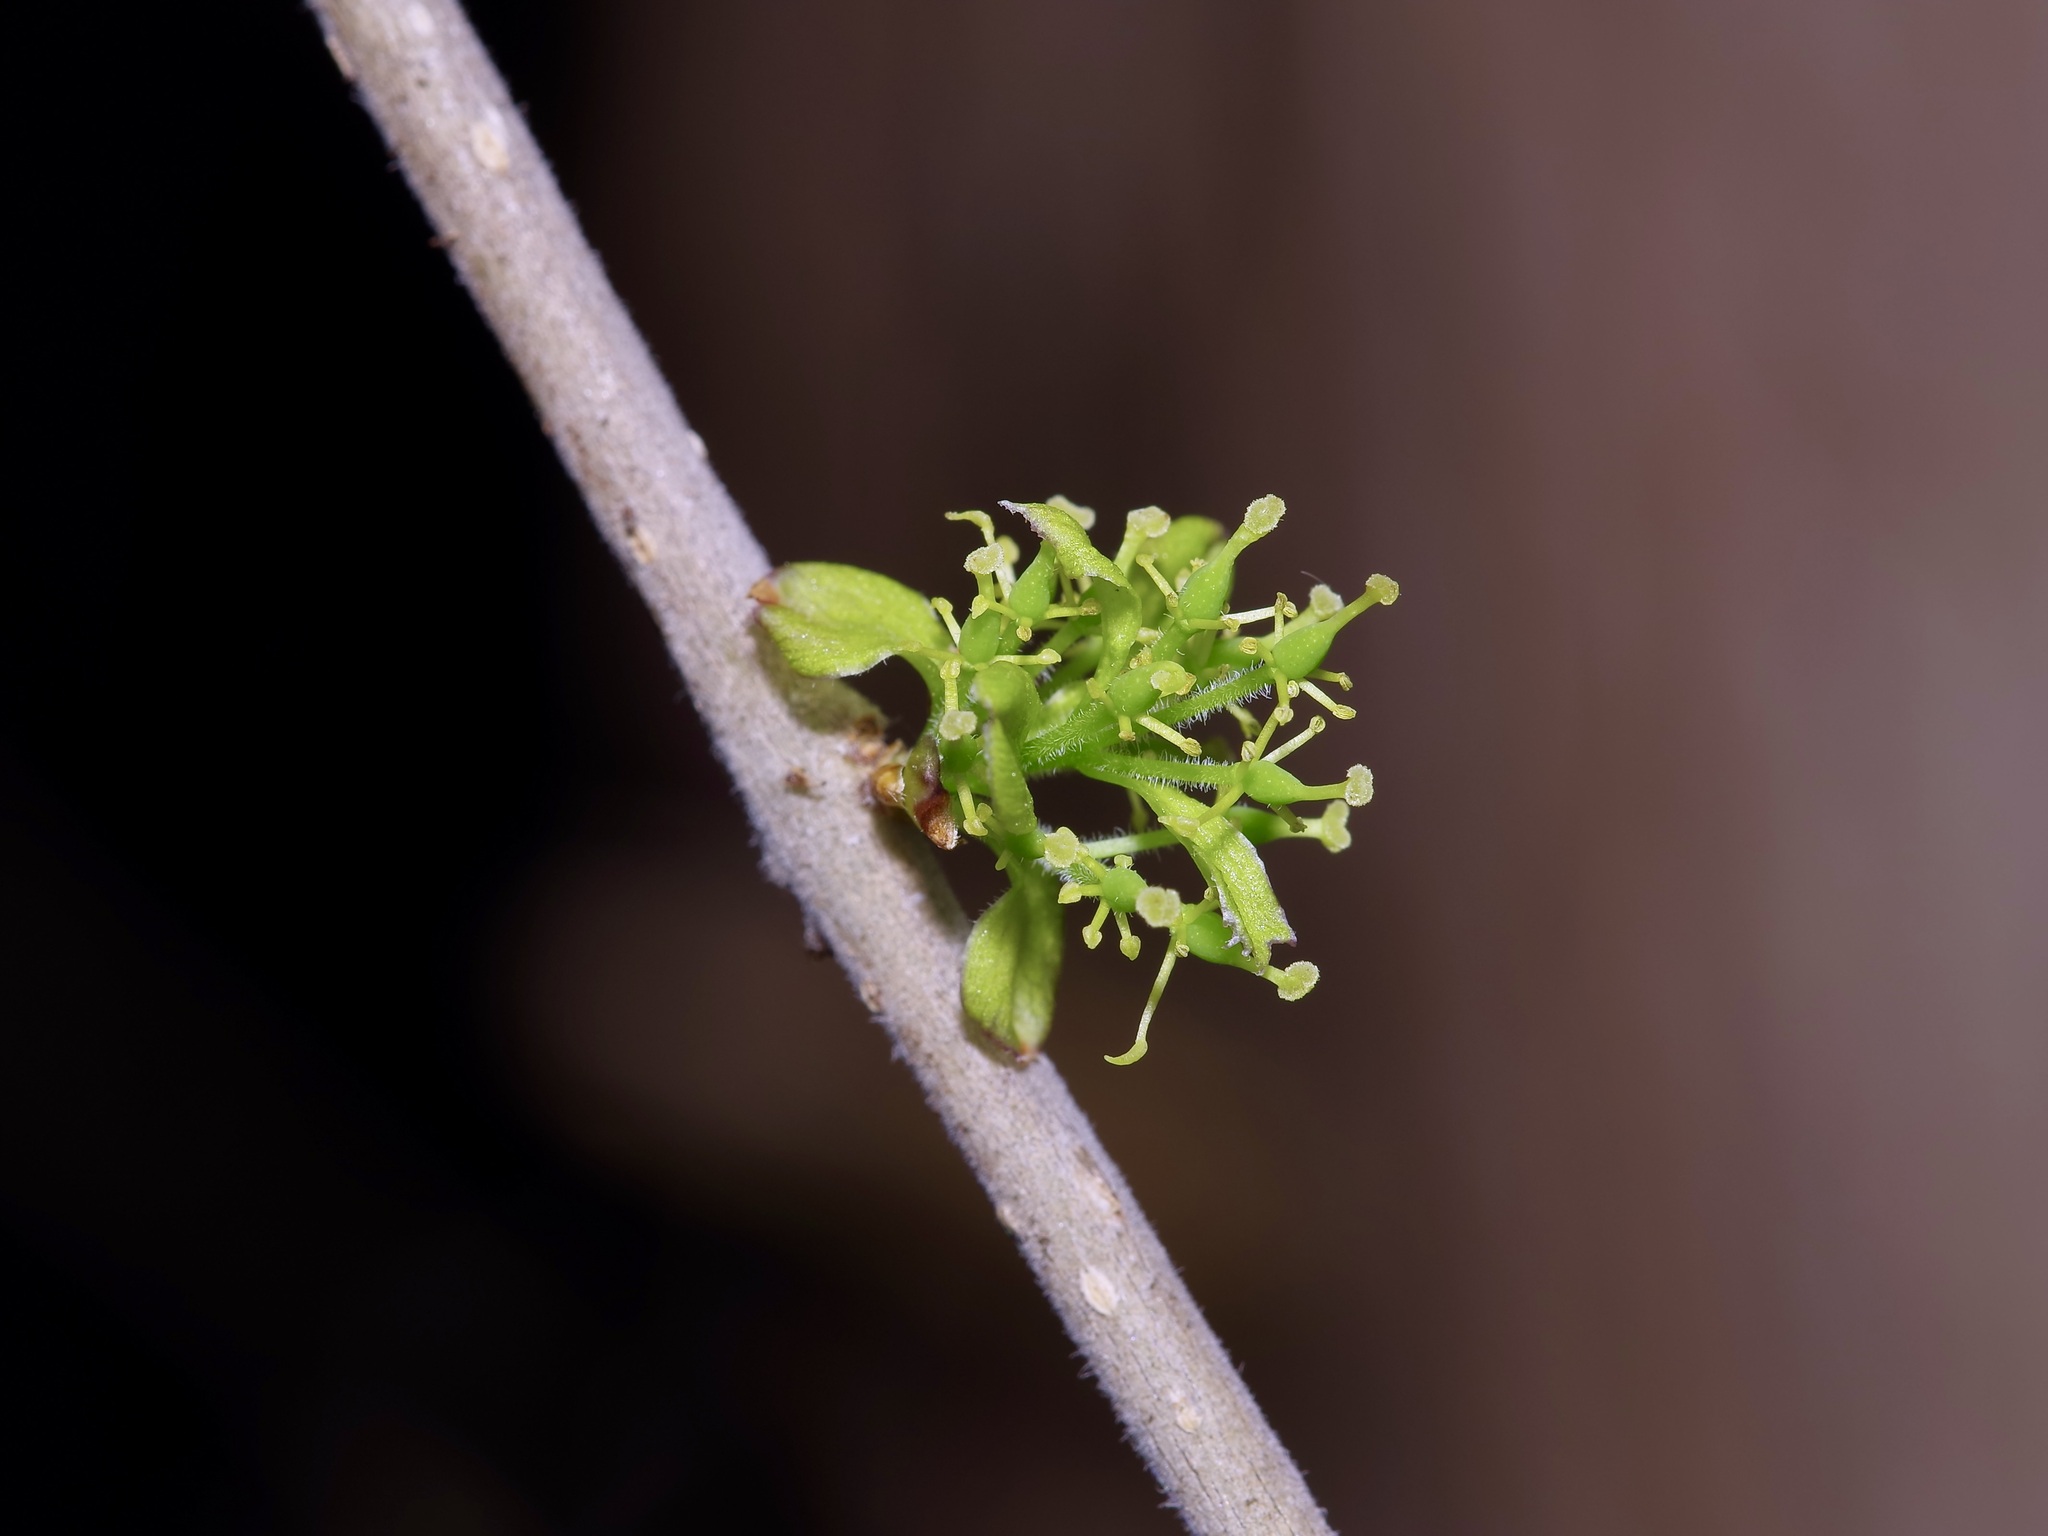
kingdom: Plantae
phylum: Tracheophyta
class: Magnoliopsida
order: Lamiales
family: Oleaceae
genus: Forestiera
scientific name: Forestiera pubescens
